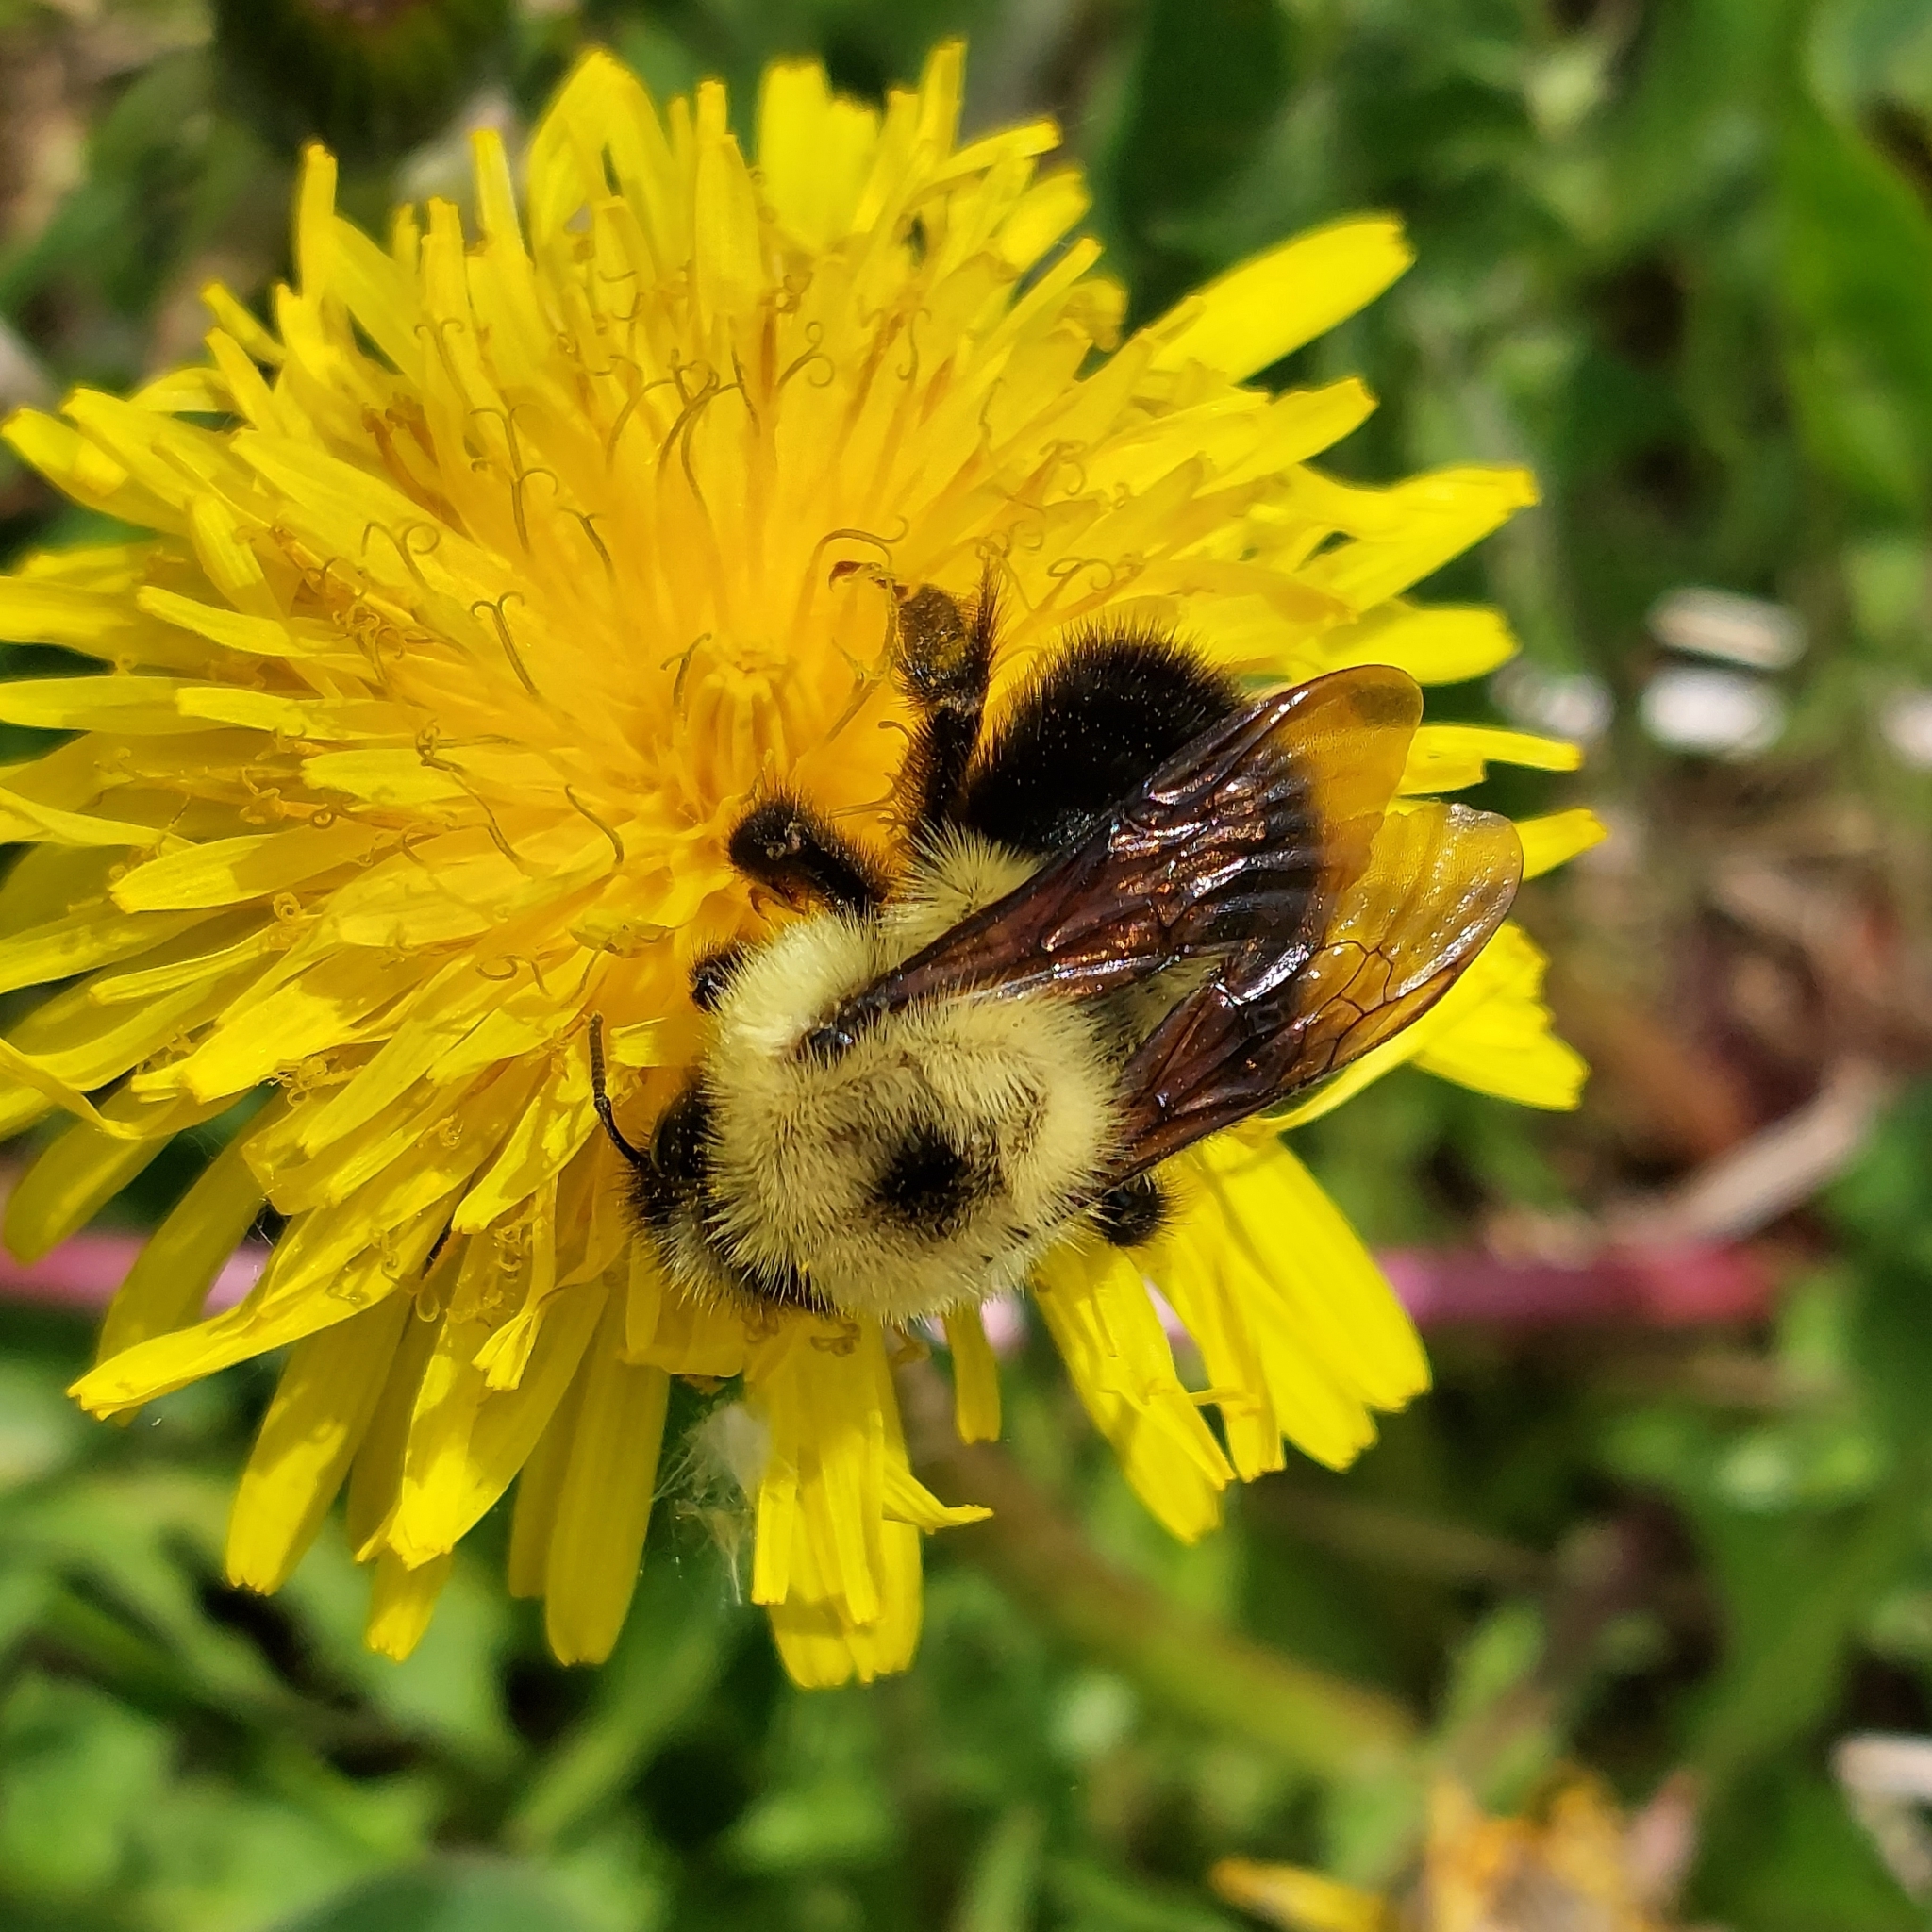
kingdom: Animalia
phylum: Arthropoda
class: Insecta
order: Hymenoptera
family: Apidae
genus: Bombus
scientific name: Bombus bimaculatus
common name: Two-spotted bumble bee
